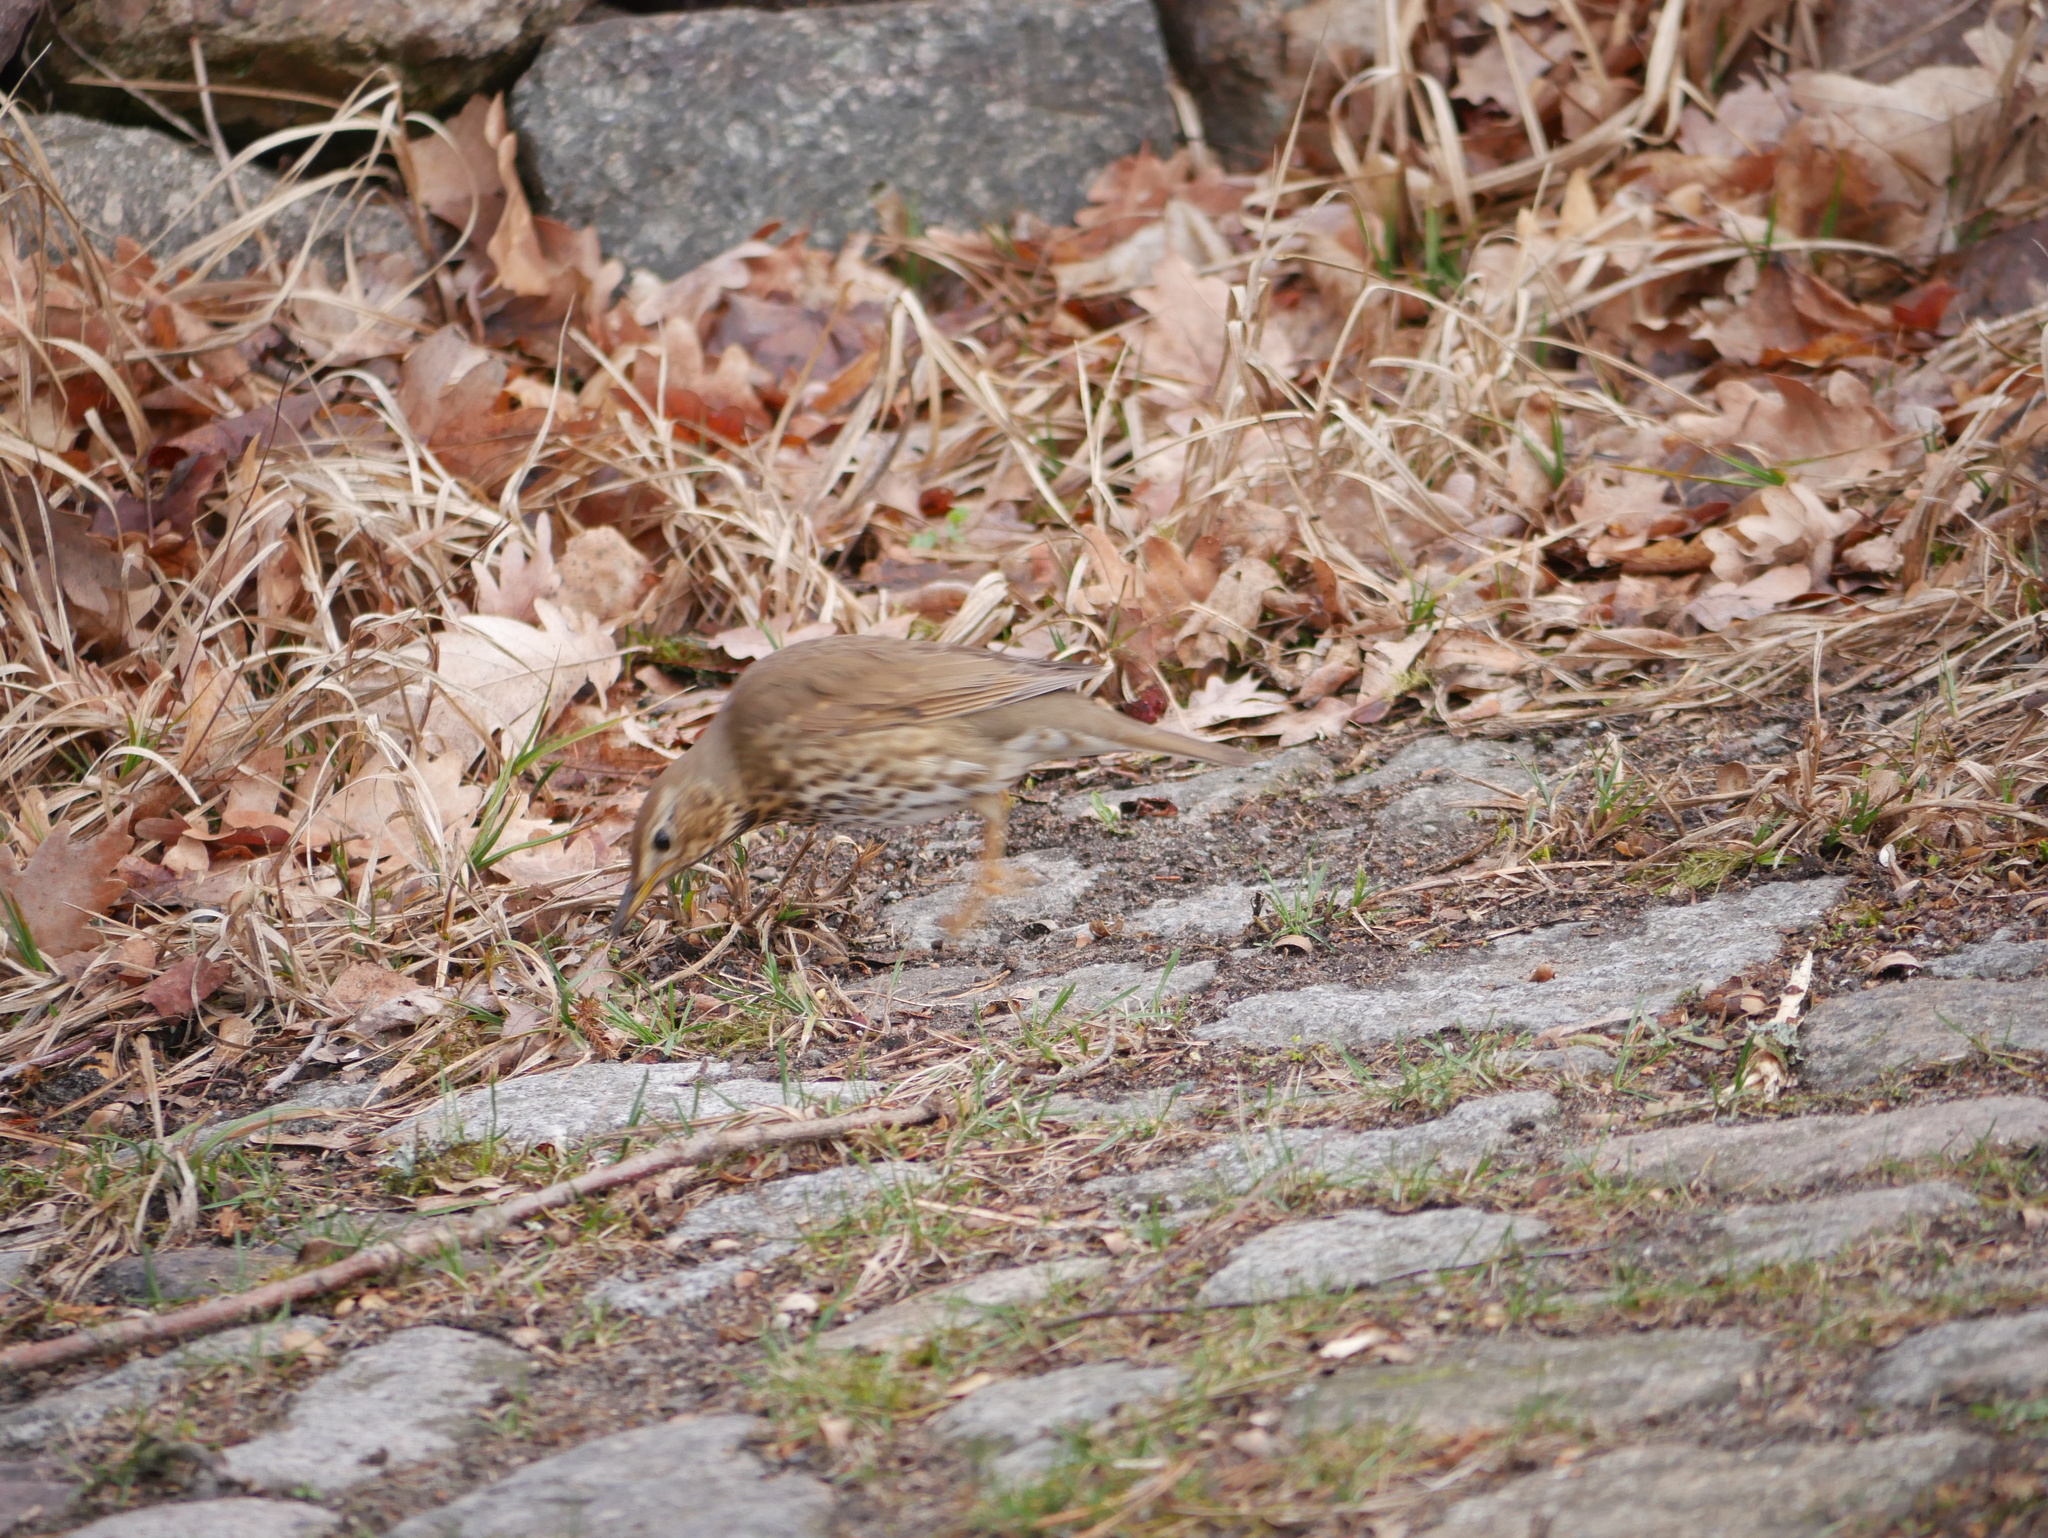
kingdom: Animalia
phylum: Chordata
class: Aves
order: Passeriformes
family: Turdidae
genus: Turdus
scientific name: Turdus philomelos
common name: Song thrush
